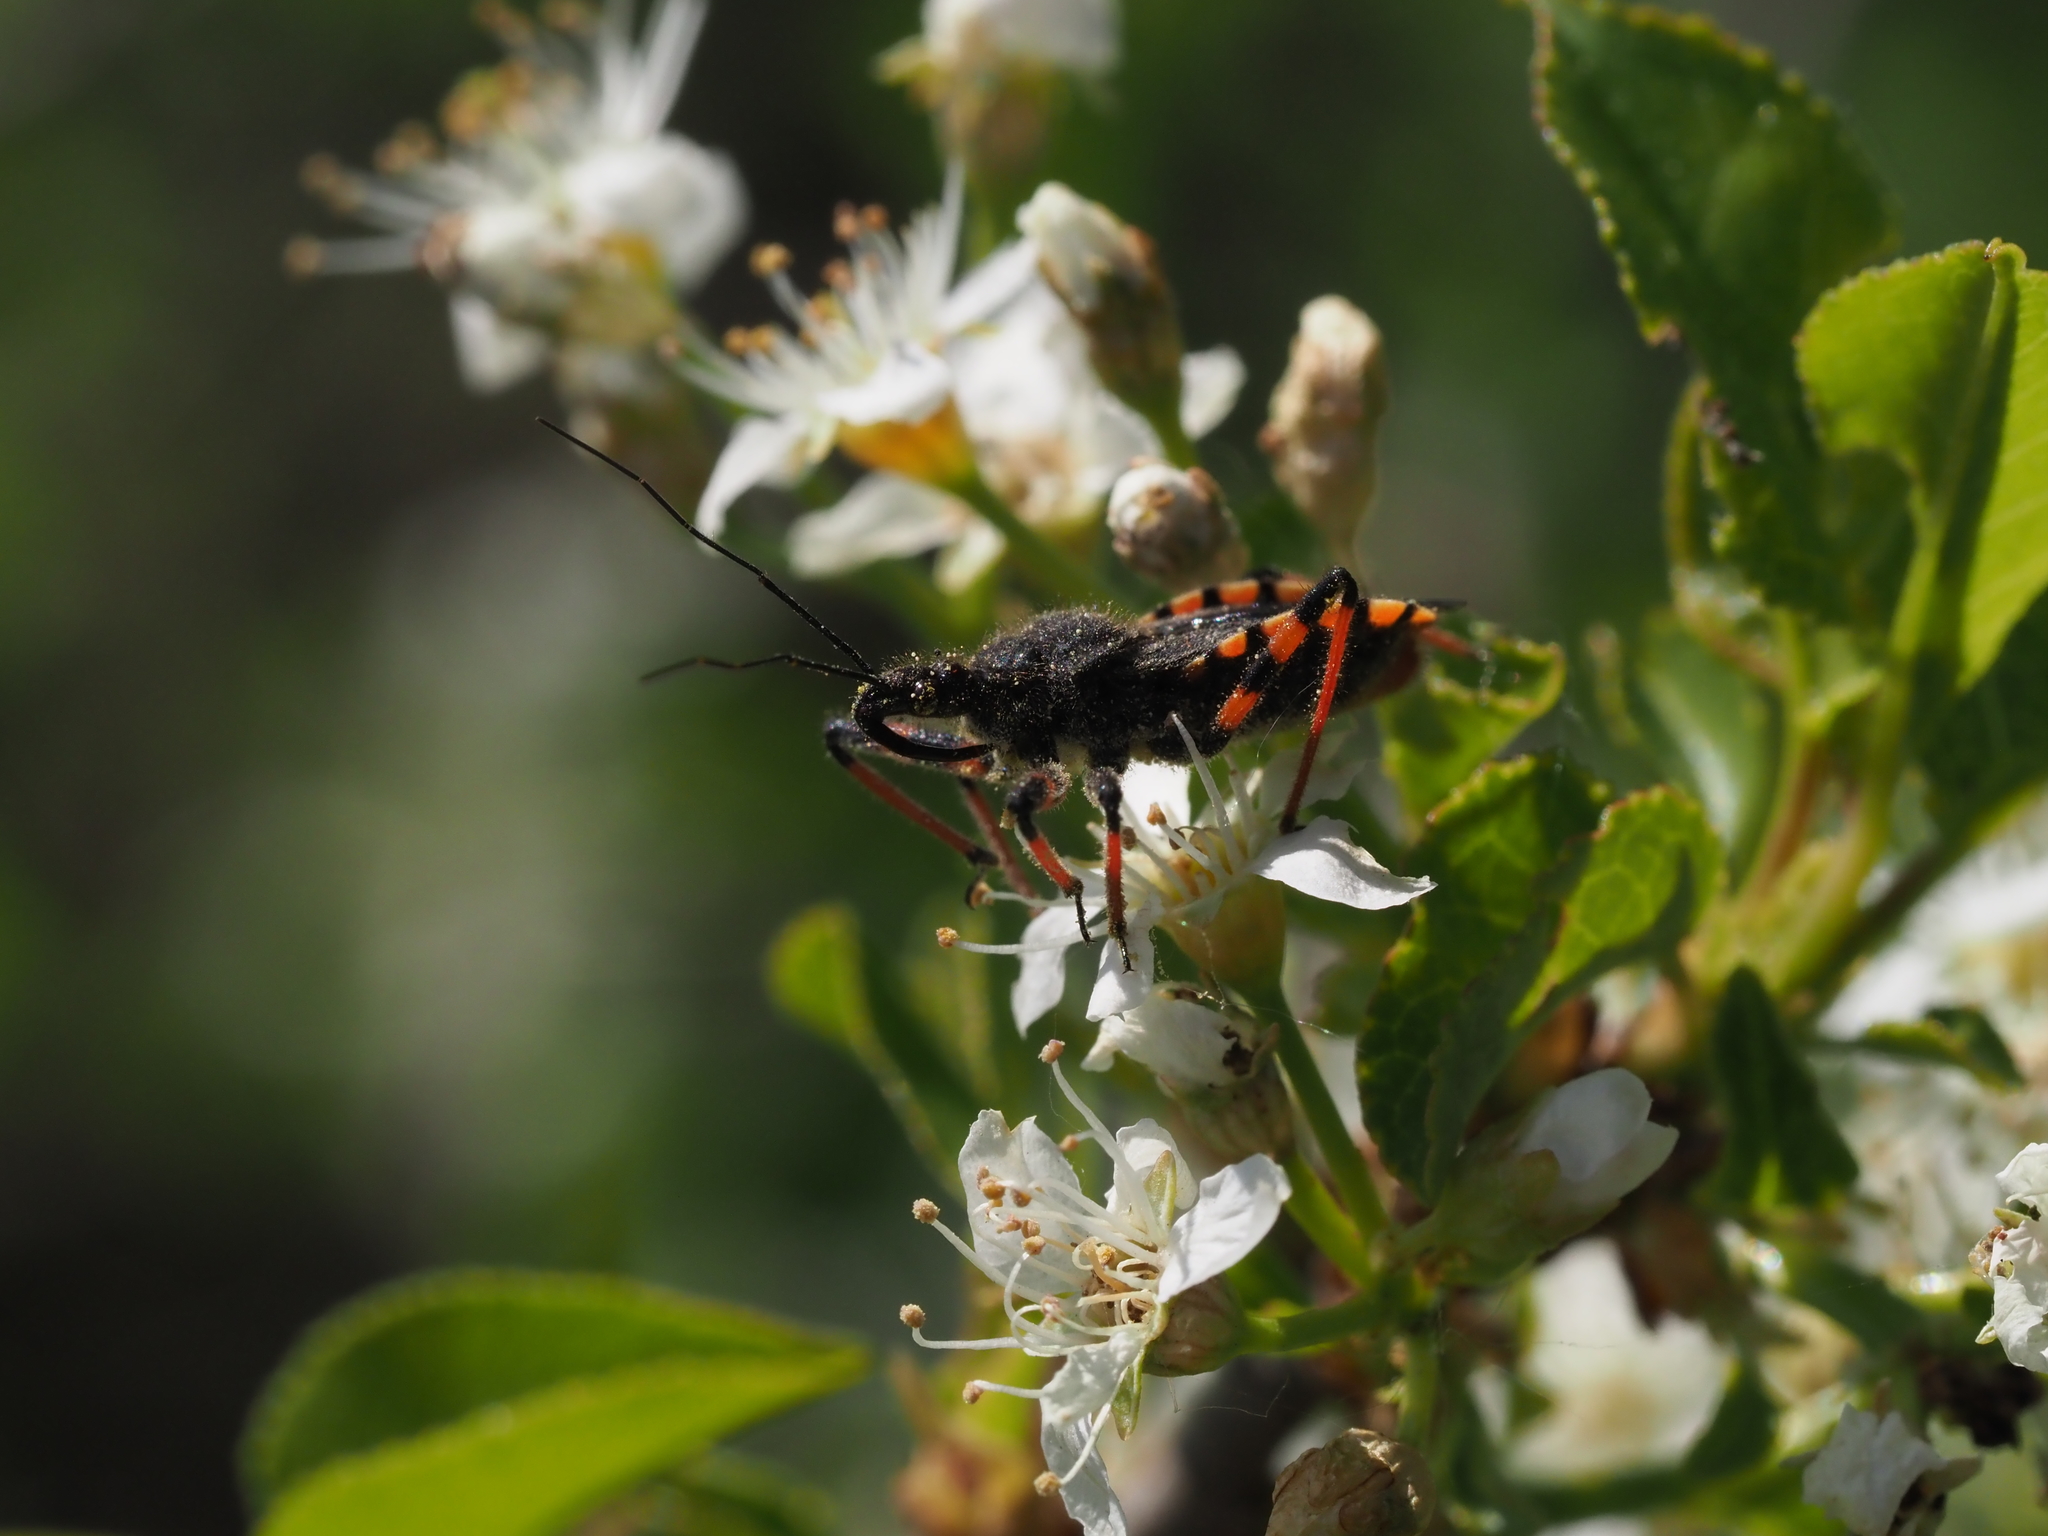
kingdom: Animalia
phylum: Arthropoda
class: Insecta
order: Hemiptera
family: Reduviidae
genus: Rhynocoris
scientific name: Rhynocoris annulatus
